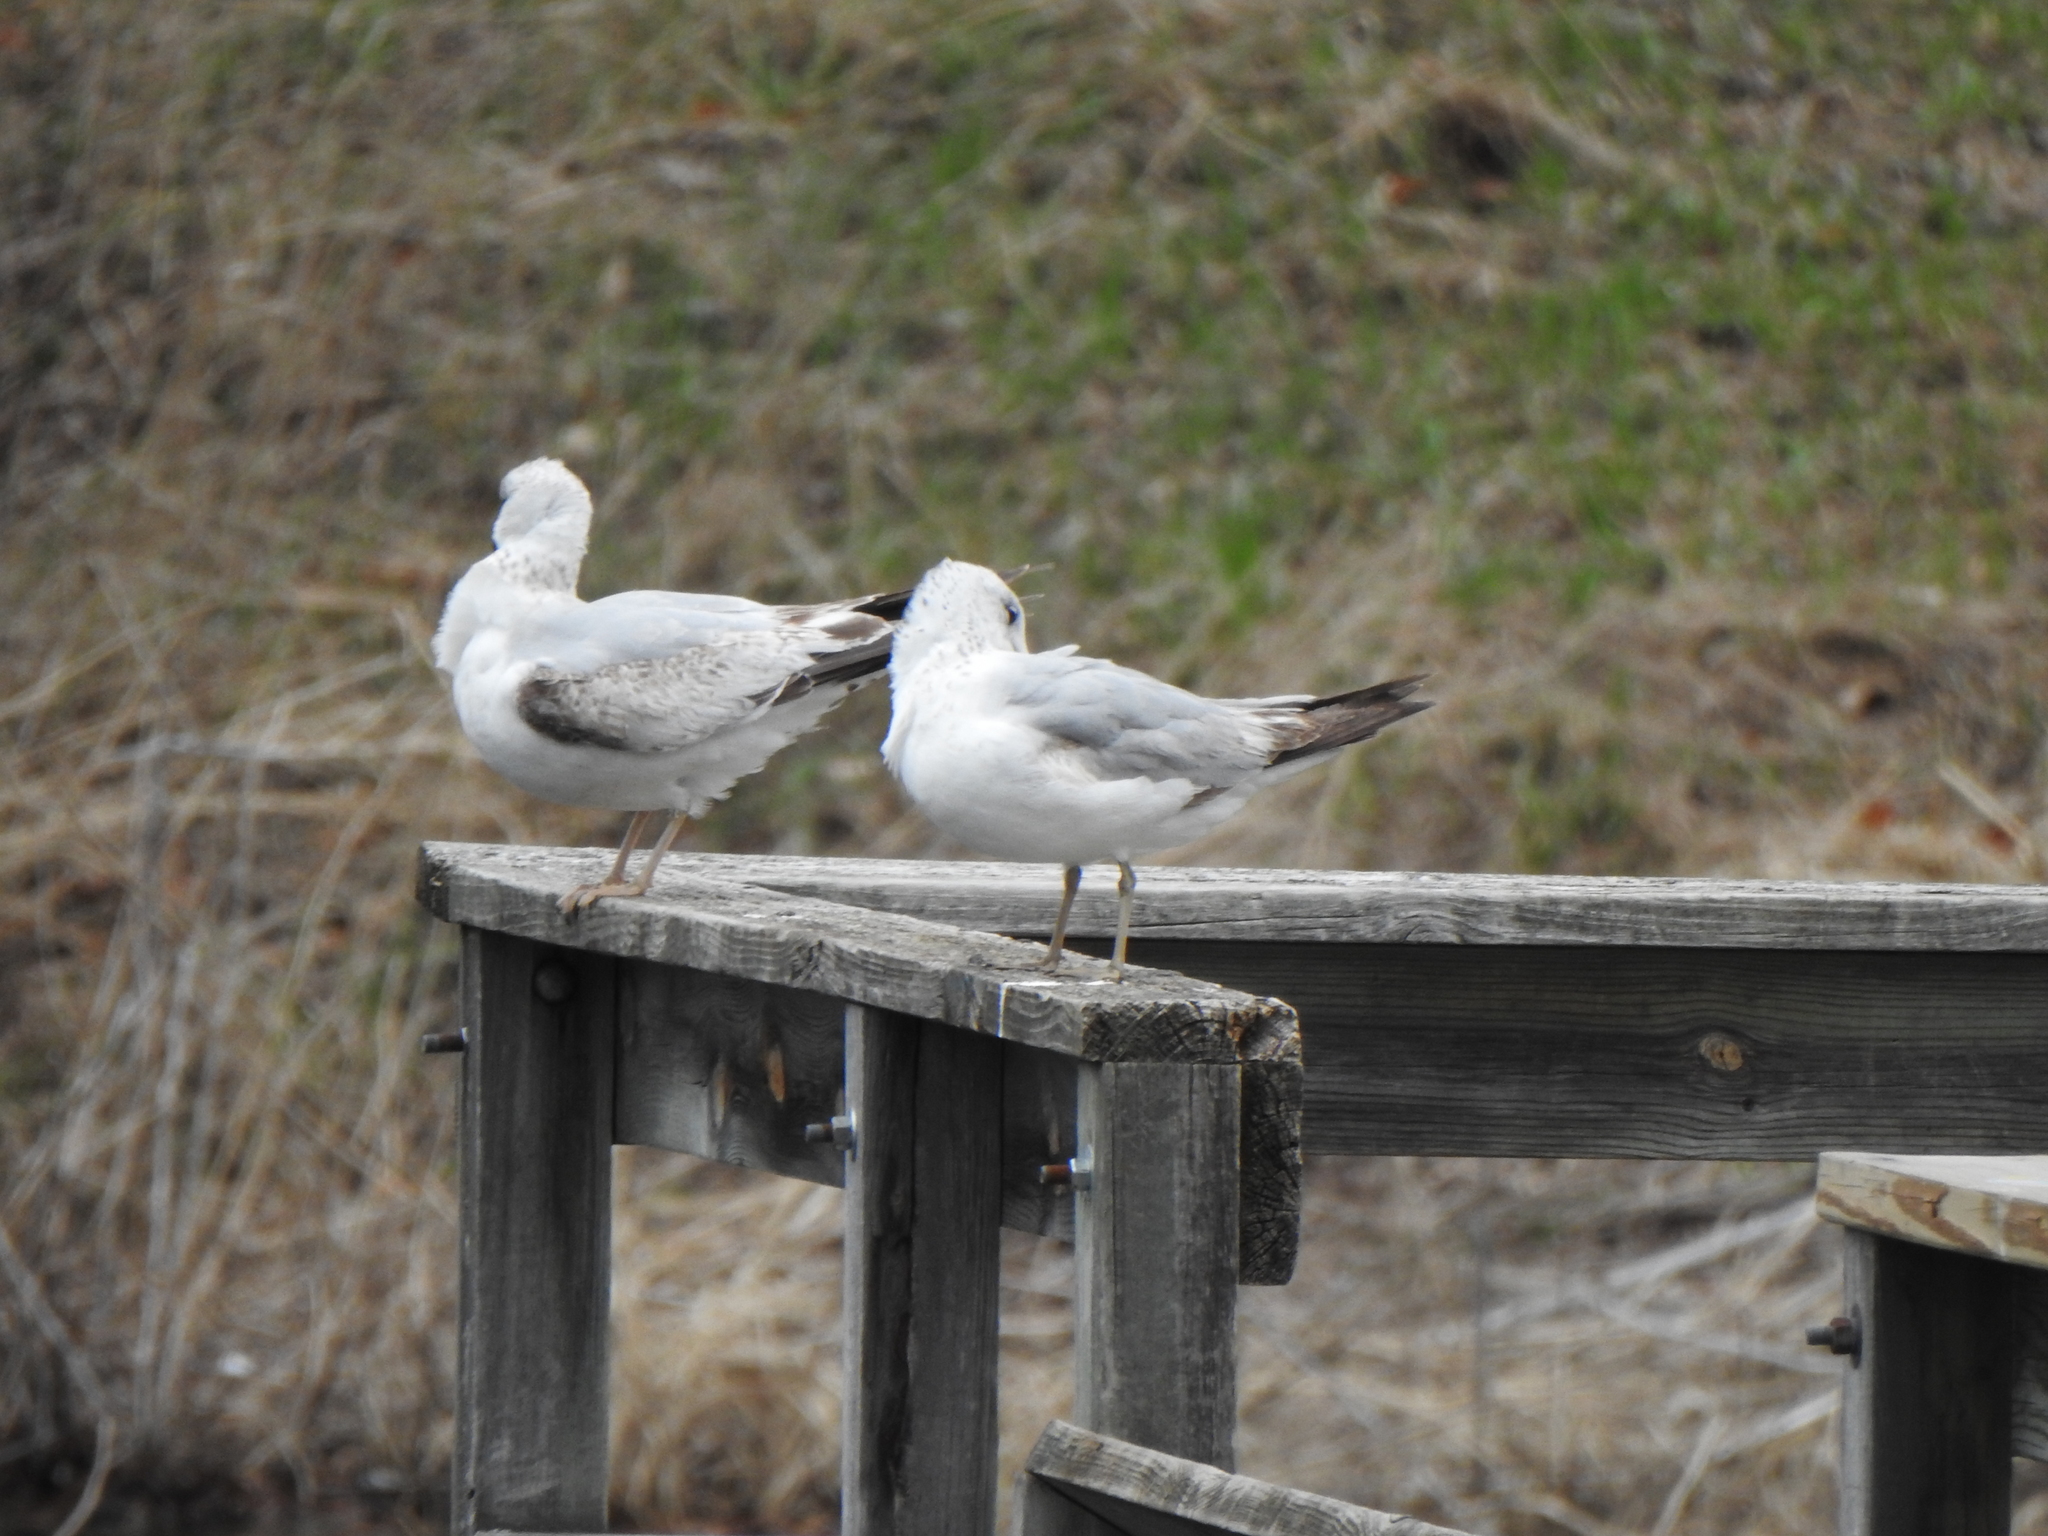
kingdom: Animalia
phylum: Chordata
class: Aves
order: Charadriiformes
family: Laridae
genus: Larus
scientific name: Larus delawarensis
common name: Ring-billed gull
